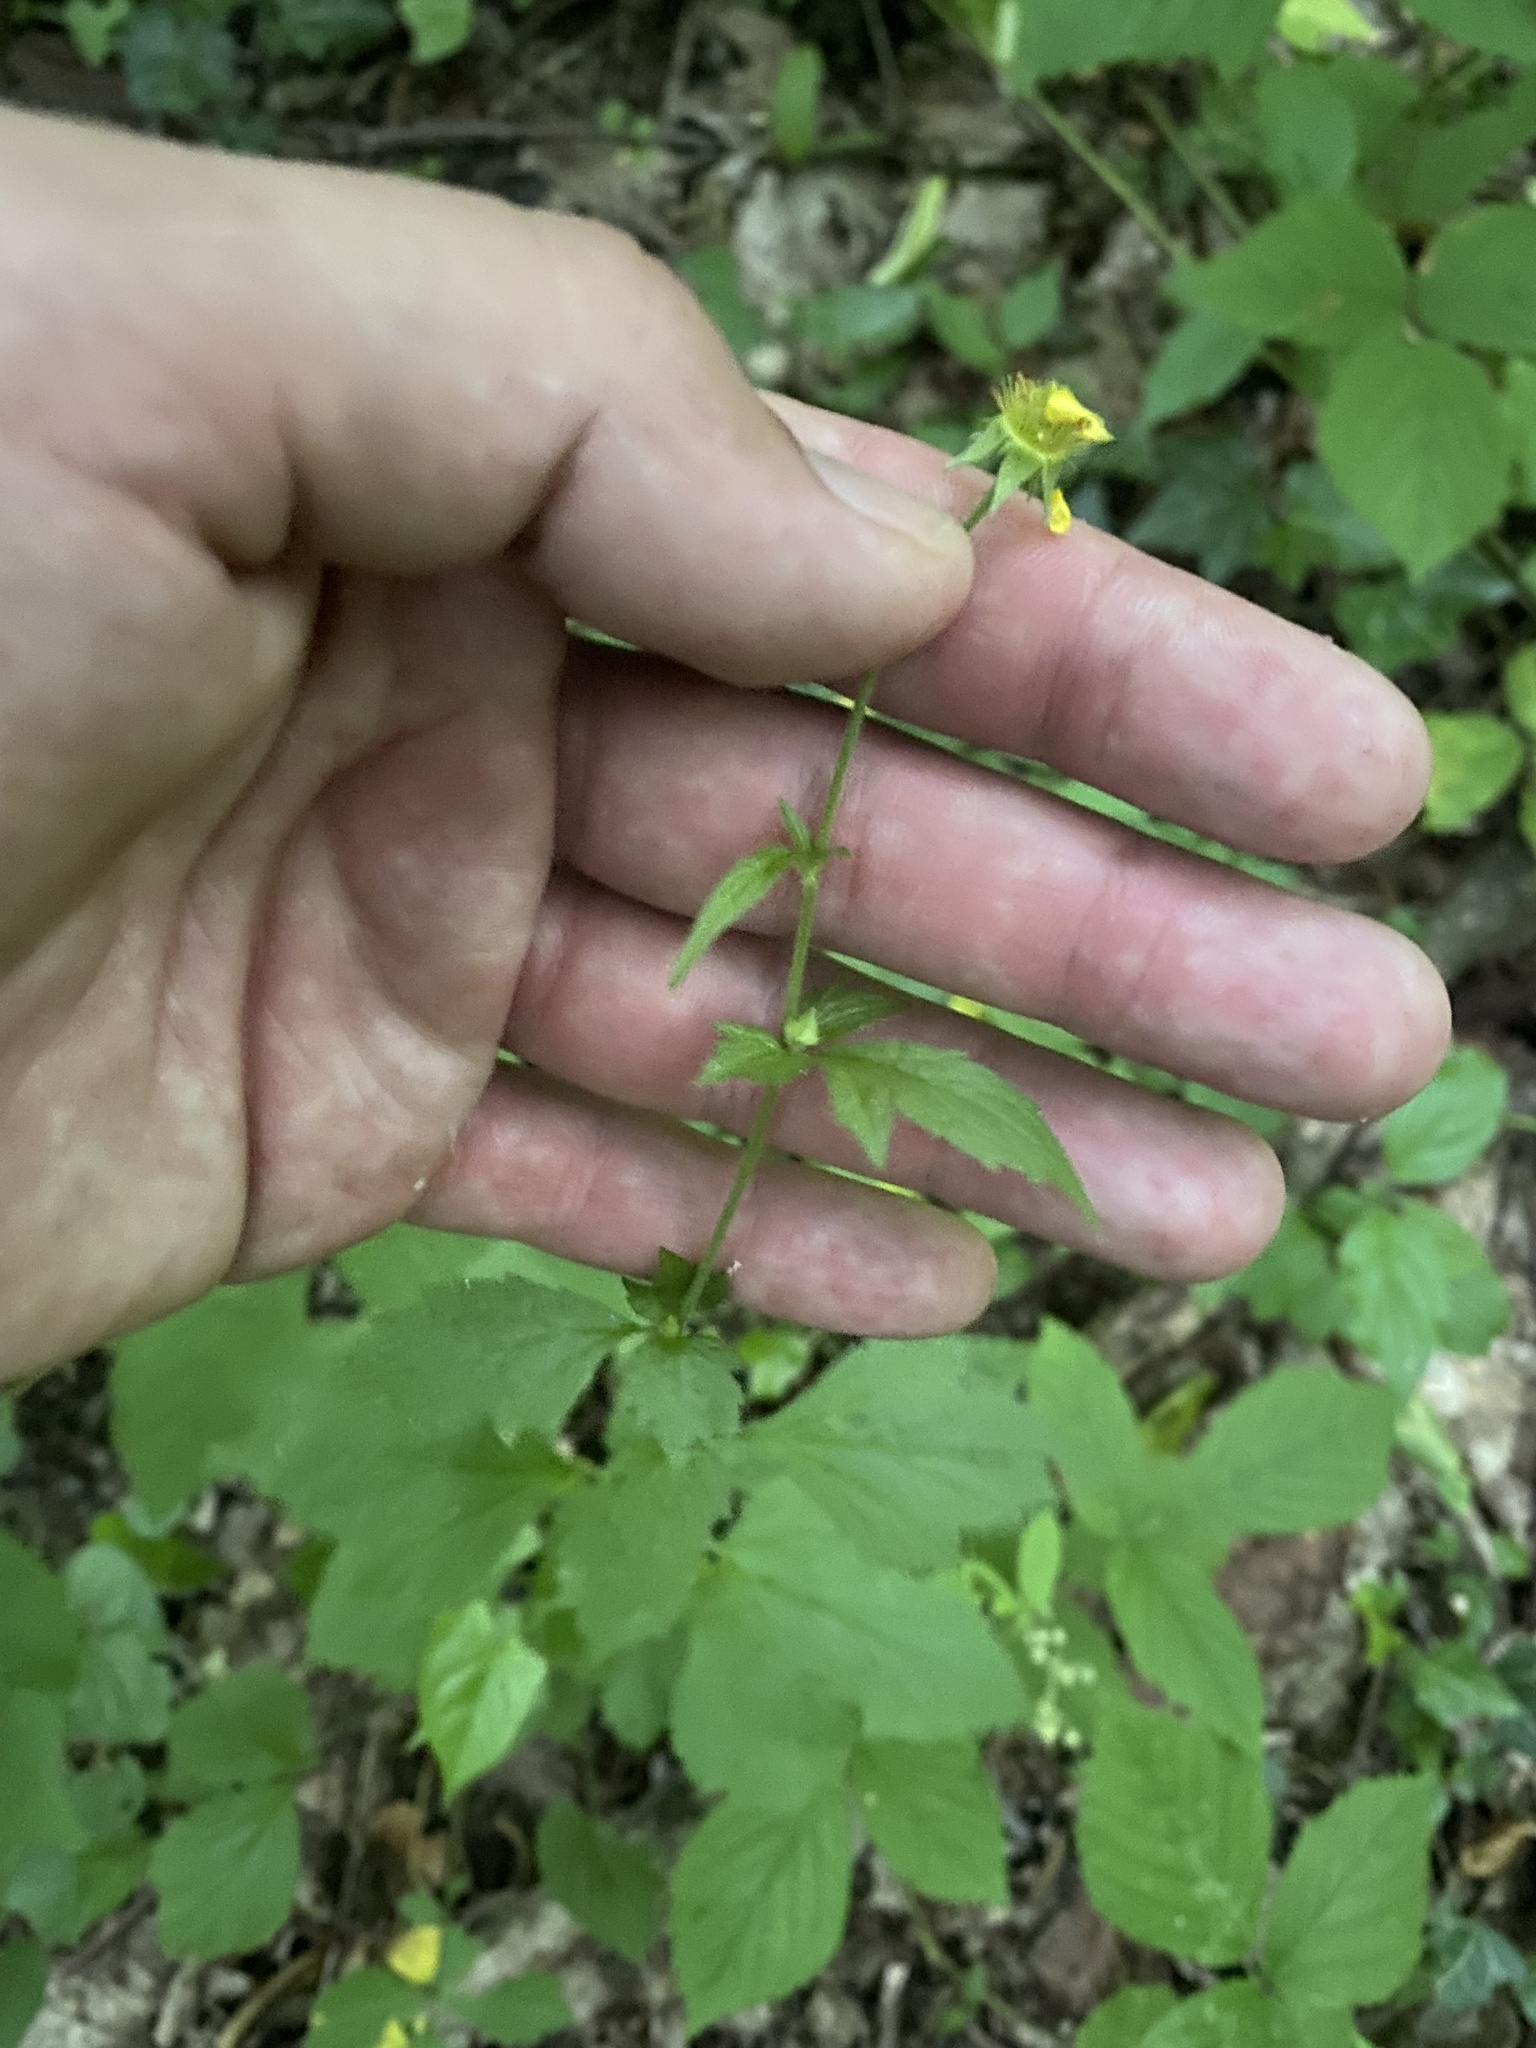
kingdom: Plantae
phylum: Tracheophyta
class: Magnoliopsida
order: Rosales
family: Rosaceae
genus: Geum
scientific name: Geum urbanum
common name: Wood avens
